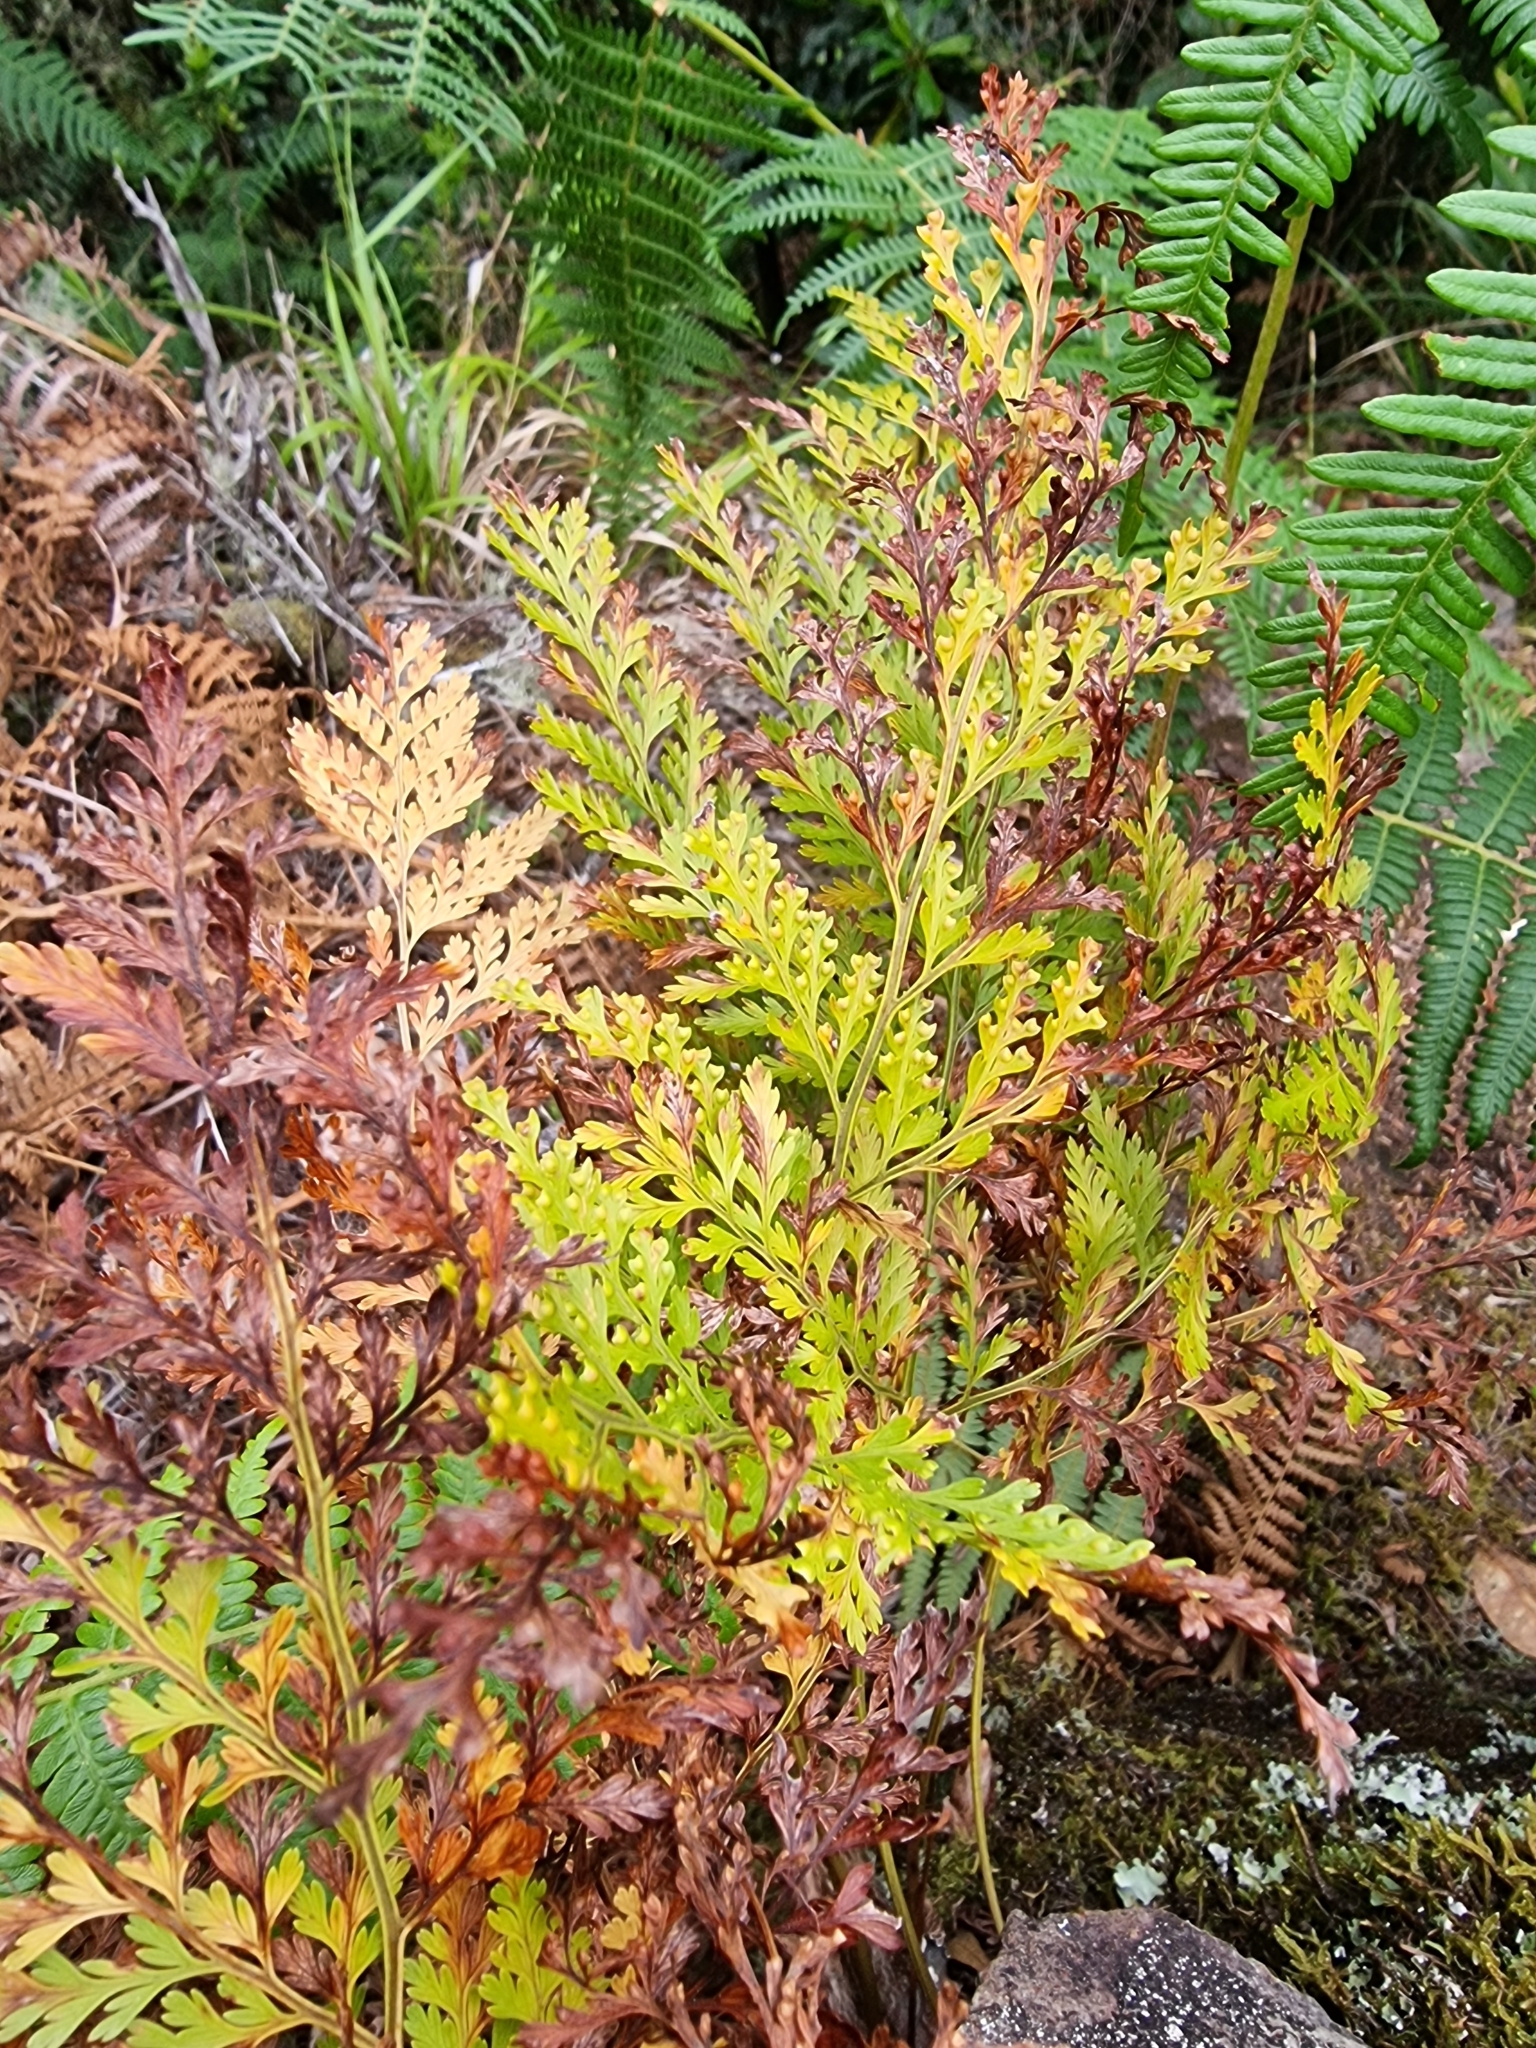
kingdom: Plantae
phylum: Tracheophyta
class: Polypodiopsida
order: Polypodiales
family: Davalliaceae
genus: Davallia
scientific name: Davallia canariensis
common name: Hare's-foot fern
